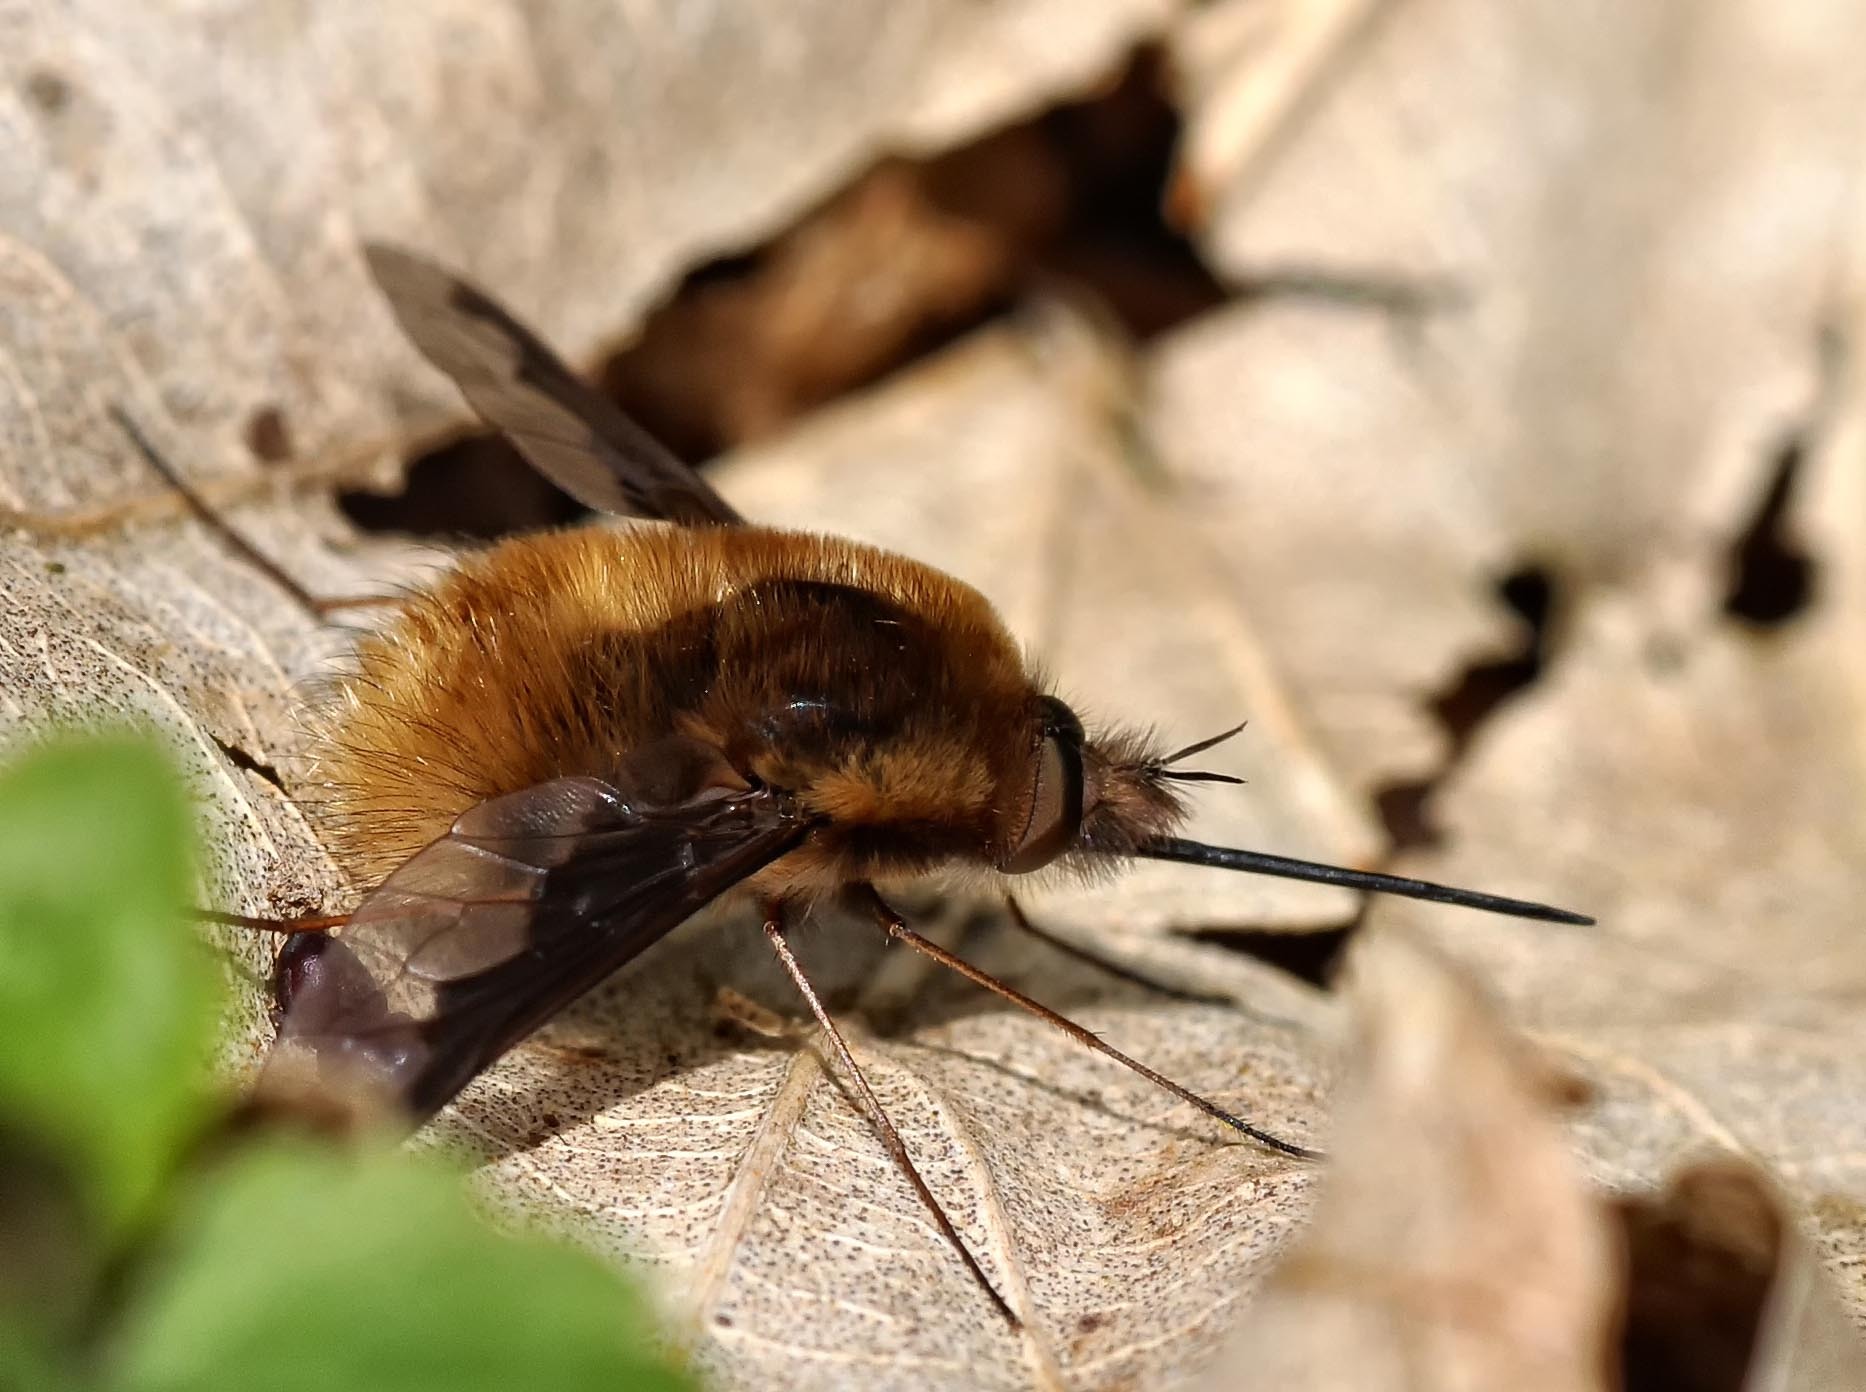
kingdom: Animalia
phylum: Arthropoda
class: Insecta
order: Diptera
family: Bombyliidae
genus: Bombylius
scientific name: Bombylius major
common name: Bee fly
